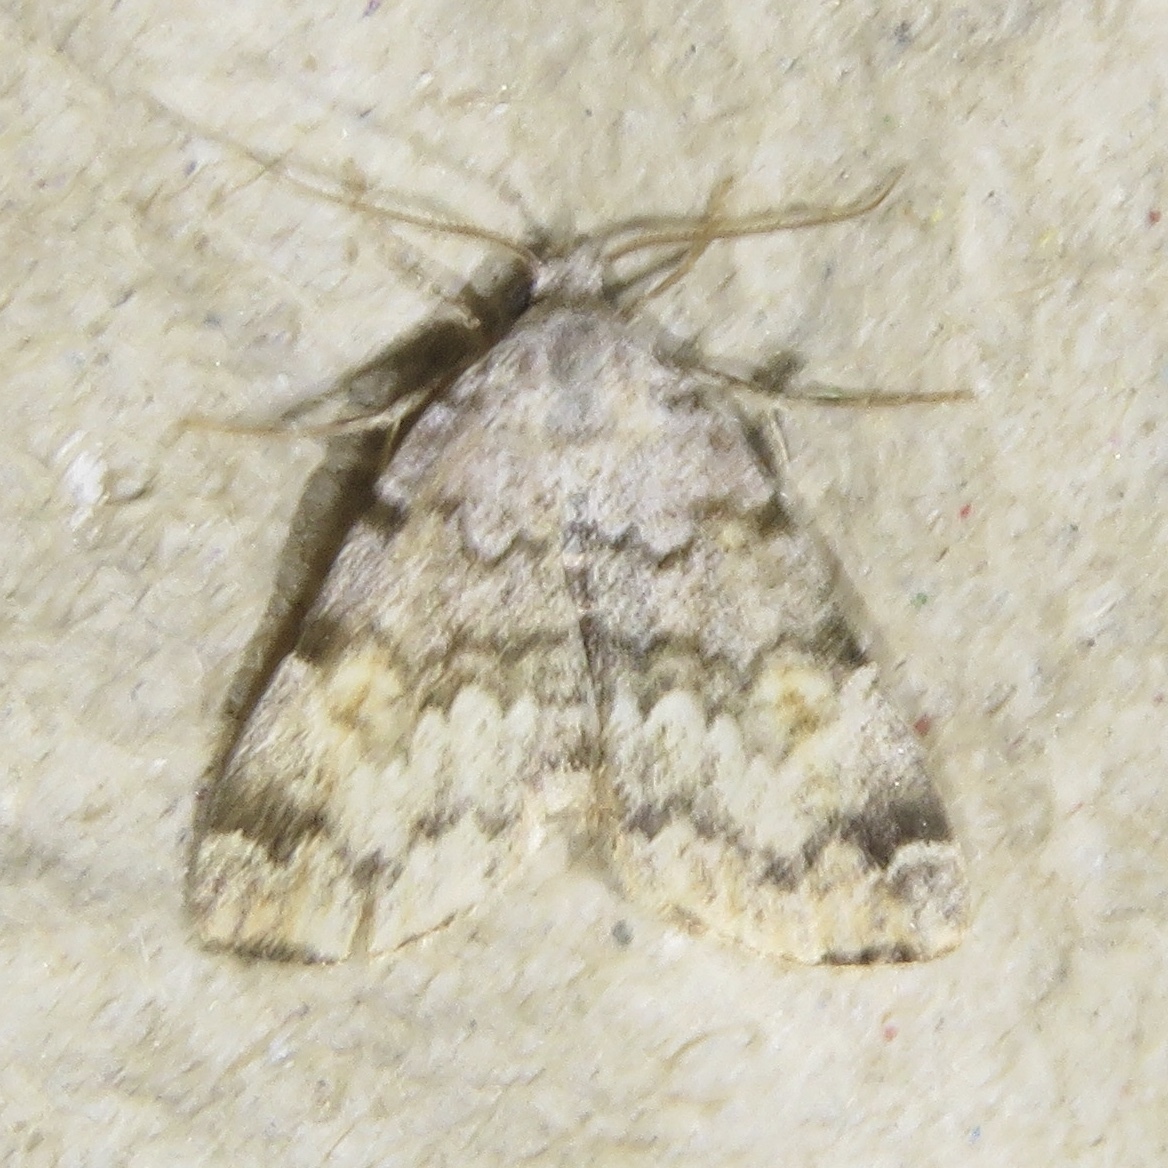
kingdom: Animalia
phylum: Arthropoda
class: Insecta
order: Lepidoptera
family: Erebidae
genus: Idia
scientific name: Idia americalis
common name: American idia moth
